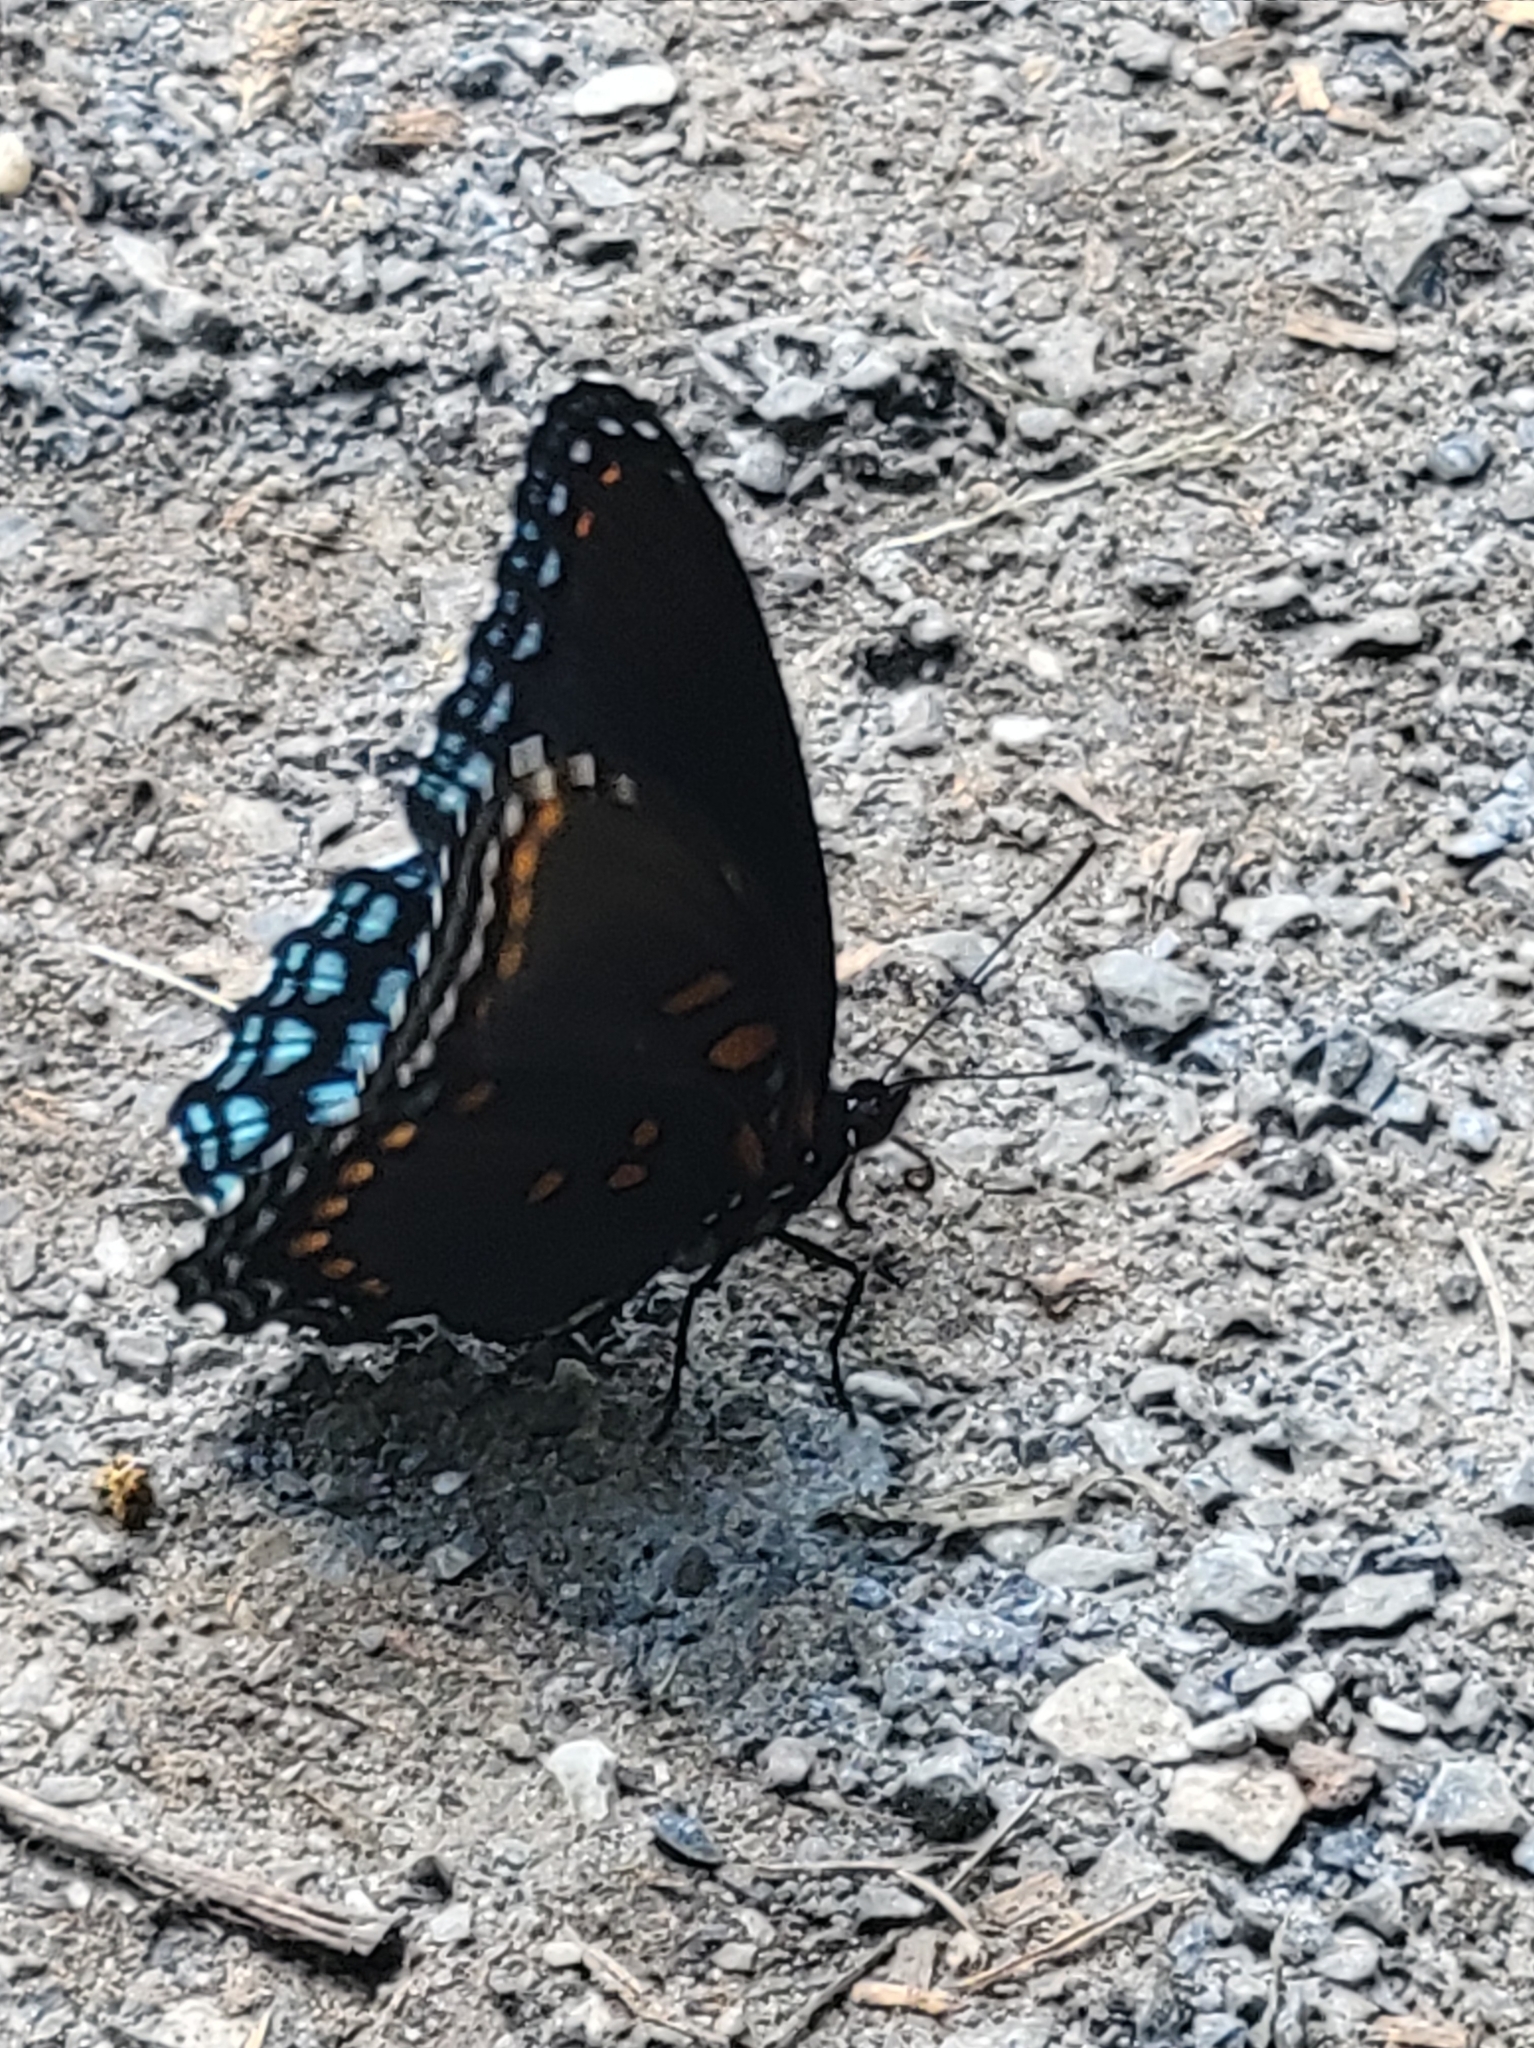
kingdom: Animalia
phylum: Arthropoda
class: Insecta
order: Lepidoptera
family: Nymphalidae
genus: Limenitis
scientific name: Limenitis arthemis
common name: Red-spotted admiral
